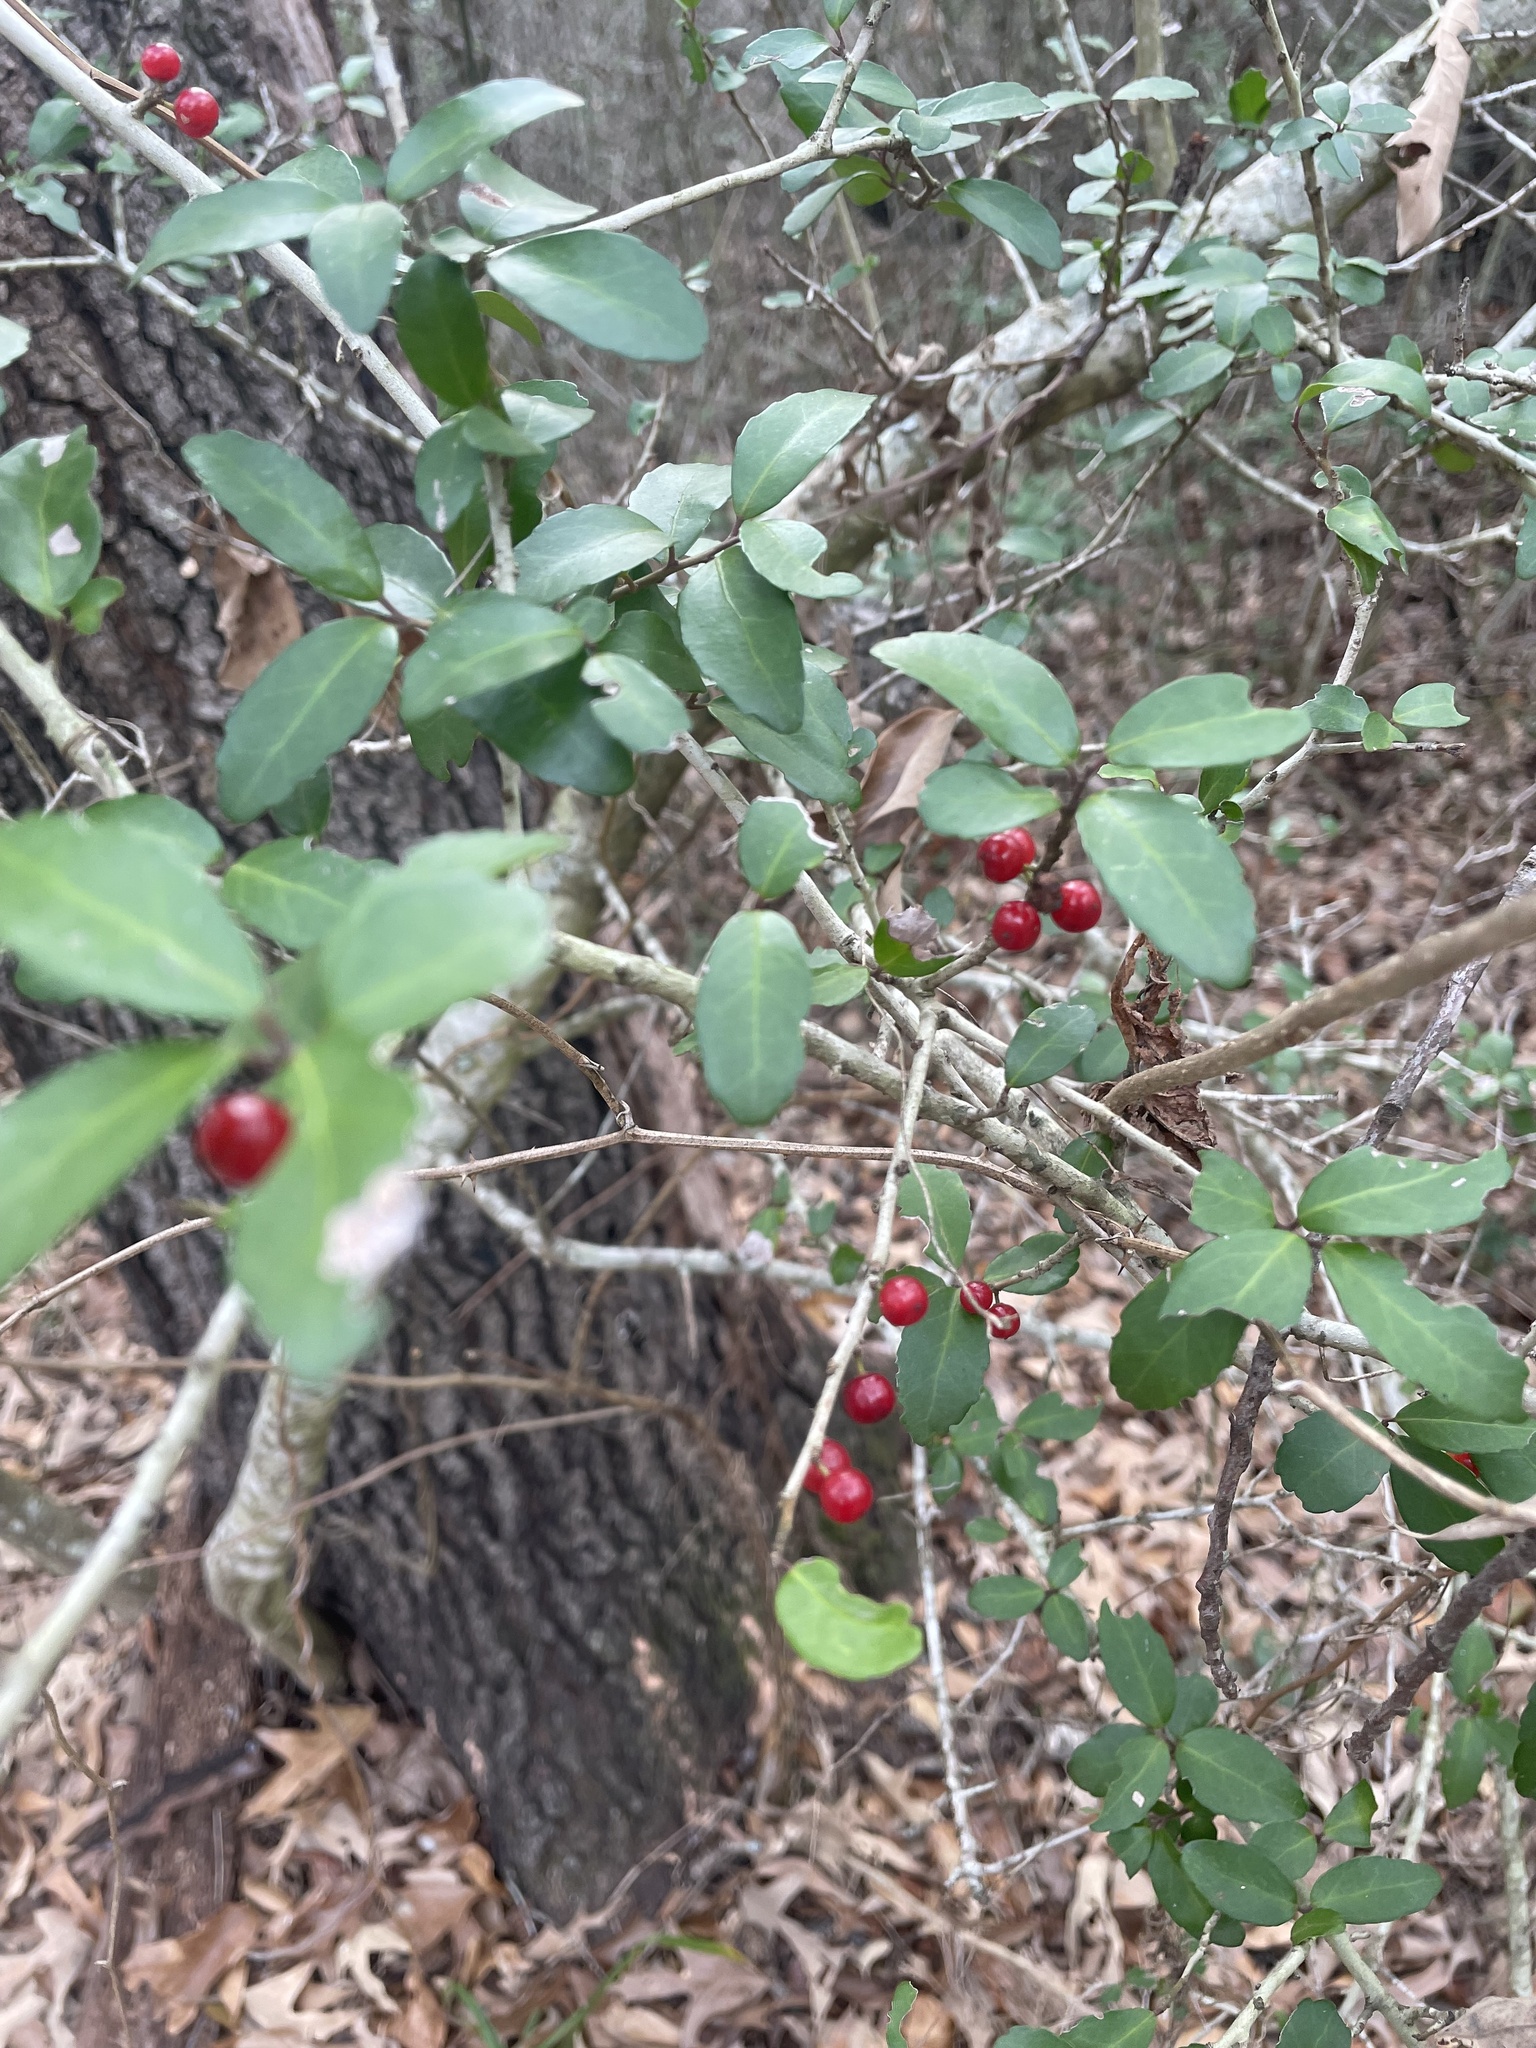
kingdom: Plantae
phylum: Tracheophyta
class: Magnoliopsida
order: Aquifoliales
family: Aquifoliaceae
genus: Ilex
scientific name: Ilex vomitoria
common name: Yaupon holly
